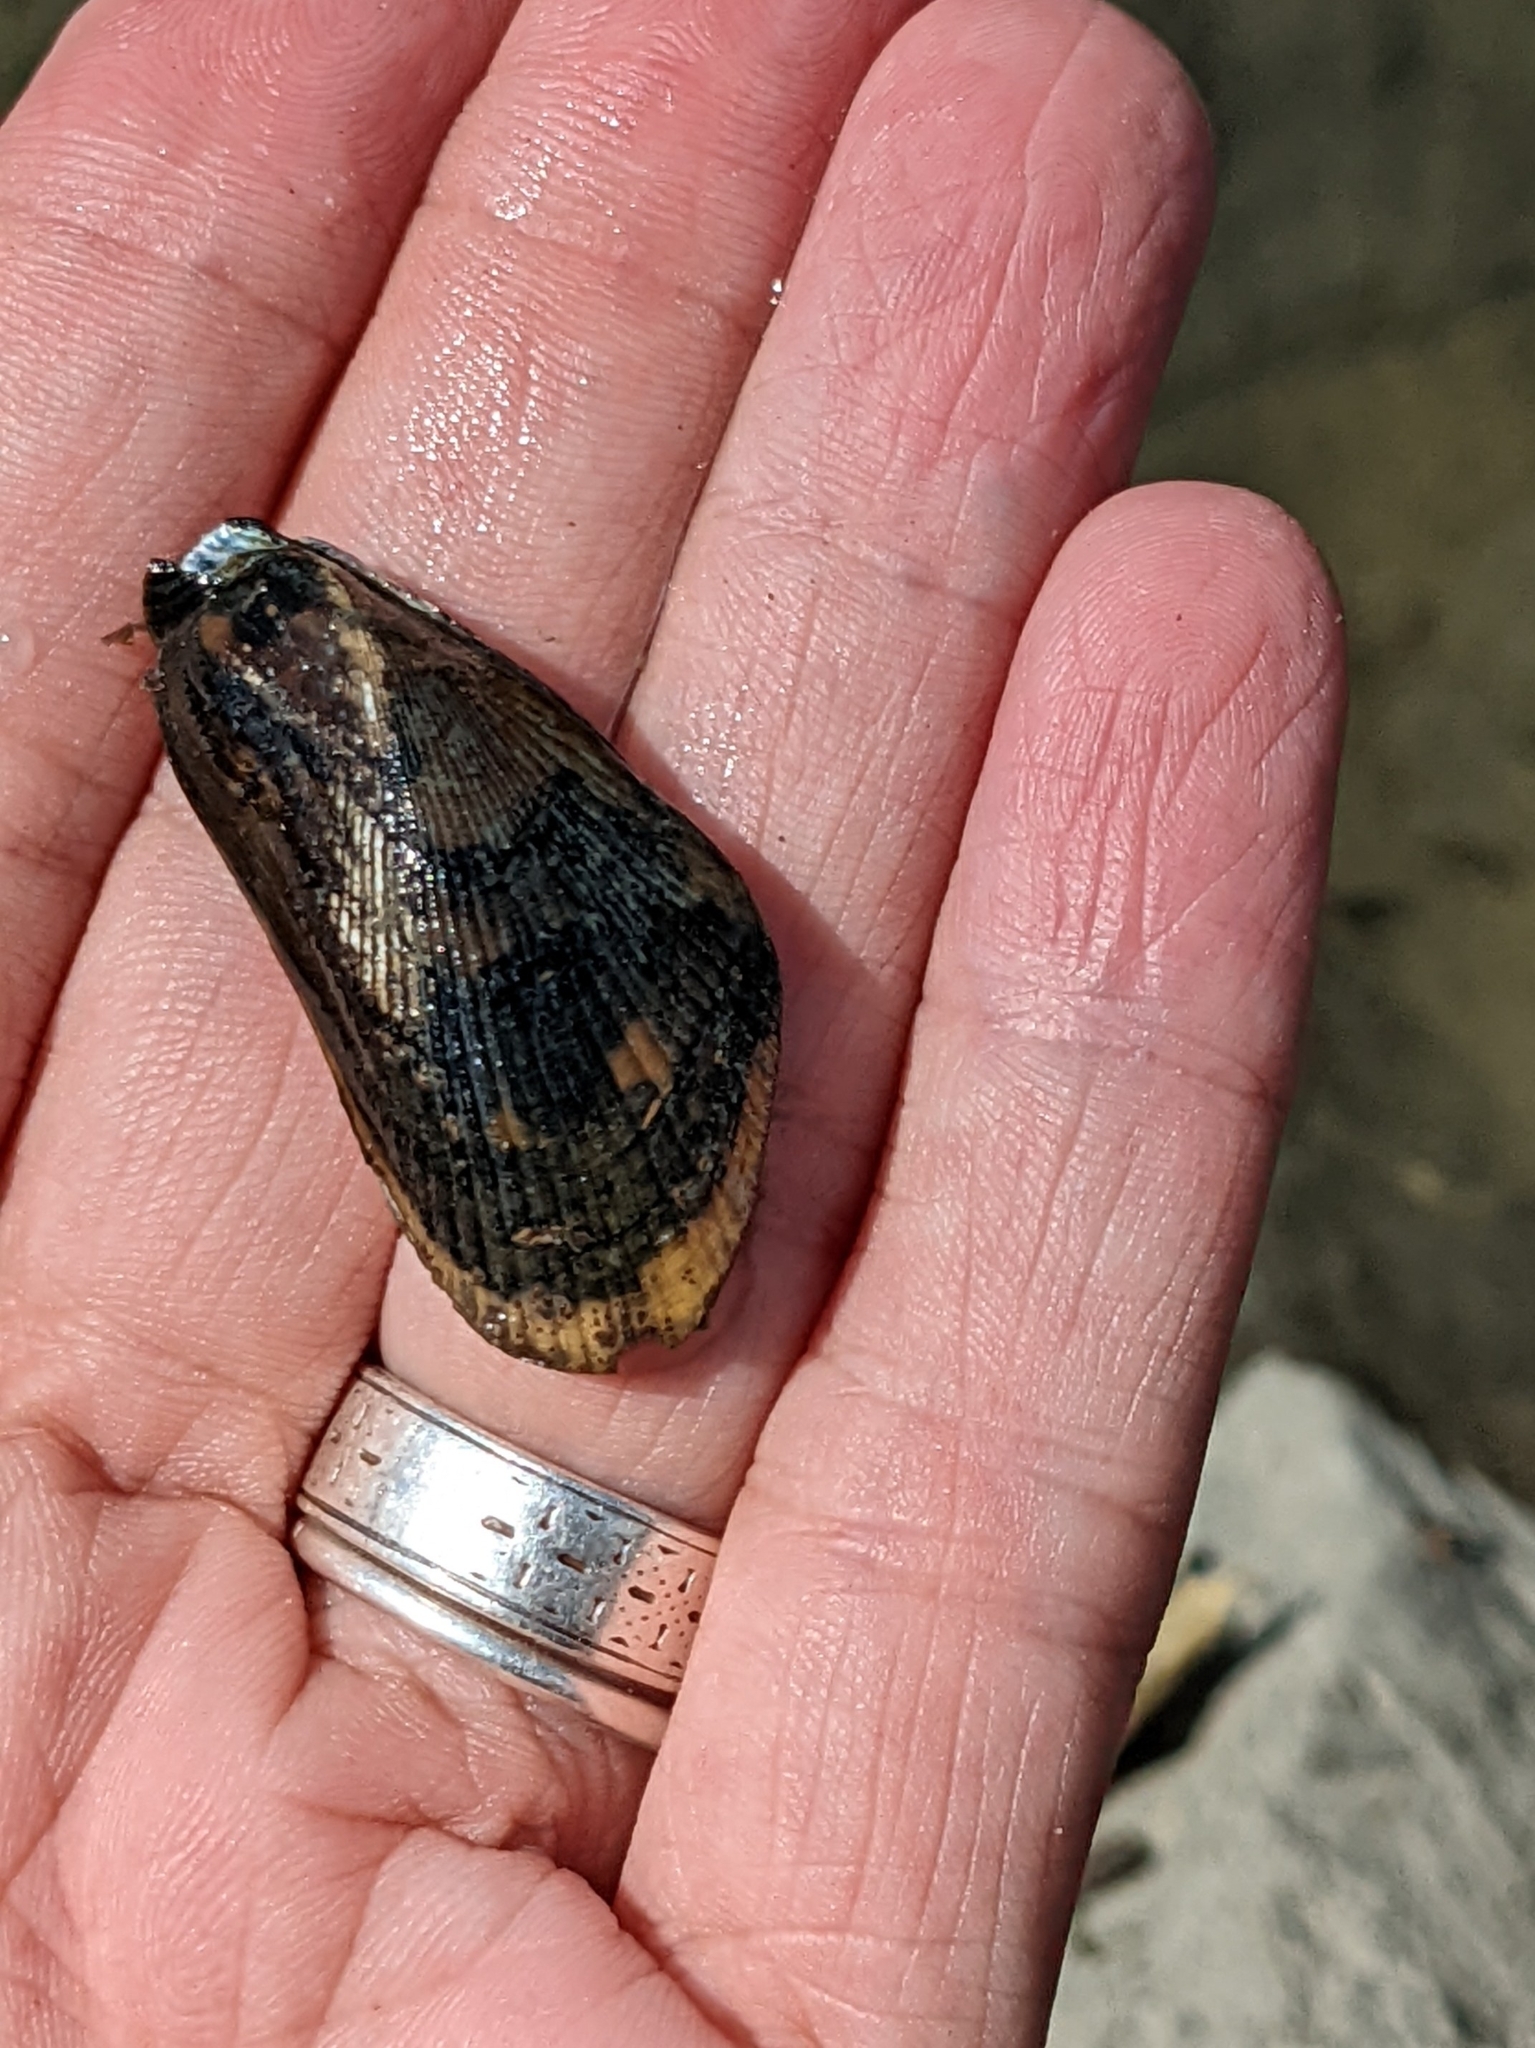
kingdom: Animalia
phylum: Mollusca
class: Bivalvia
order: Mytilida
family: Mytilidae
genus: Geukensia
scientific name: Geukensia demissa
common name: Ribbed mussel
